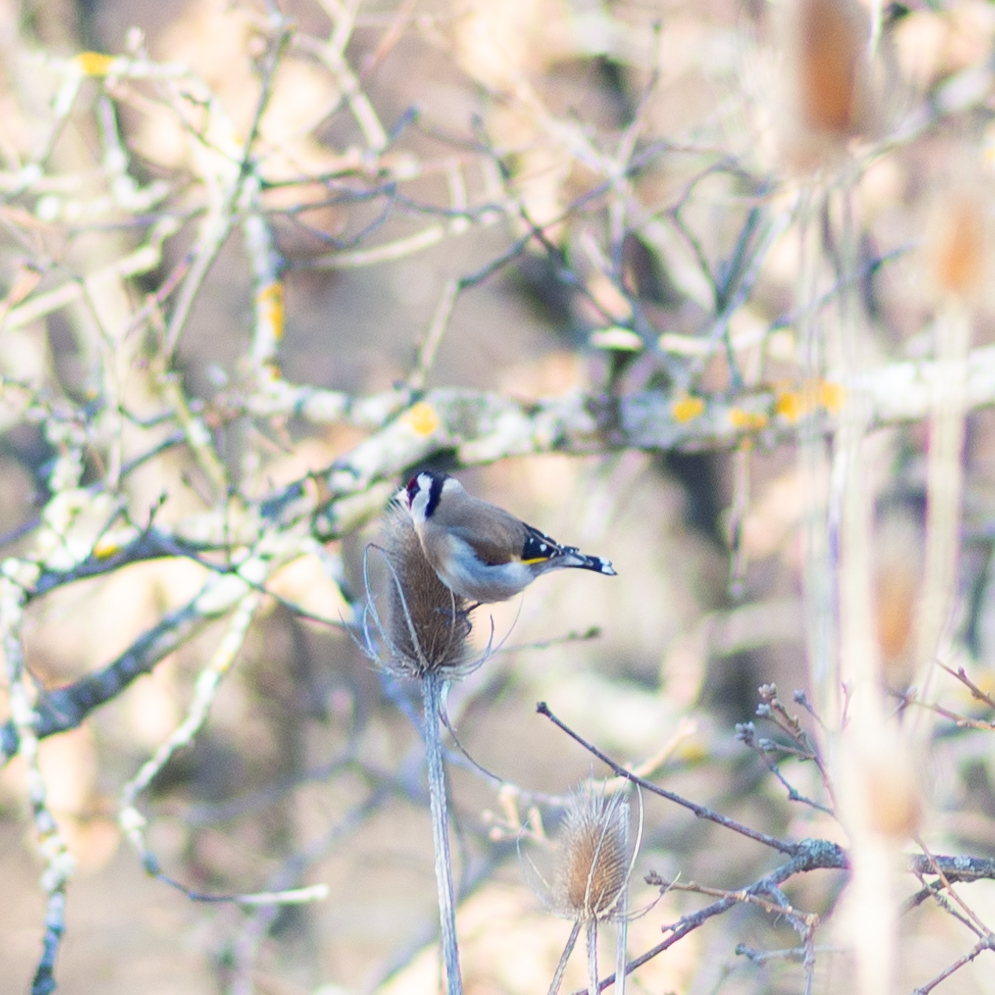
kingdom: Animalia
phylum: Chordata
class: Aves
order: Passeriformes
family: Fringillidae
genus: Carduelis
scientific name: Carduelis carduelis
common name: European goldfinch
